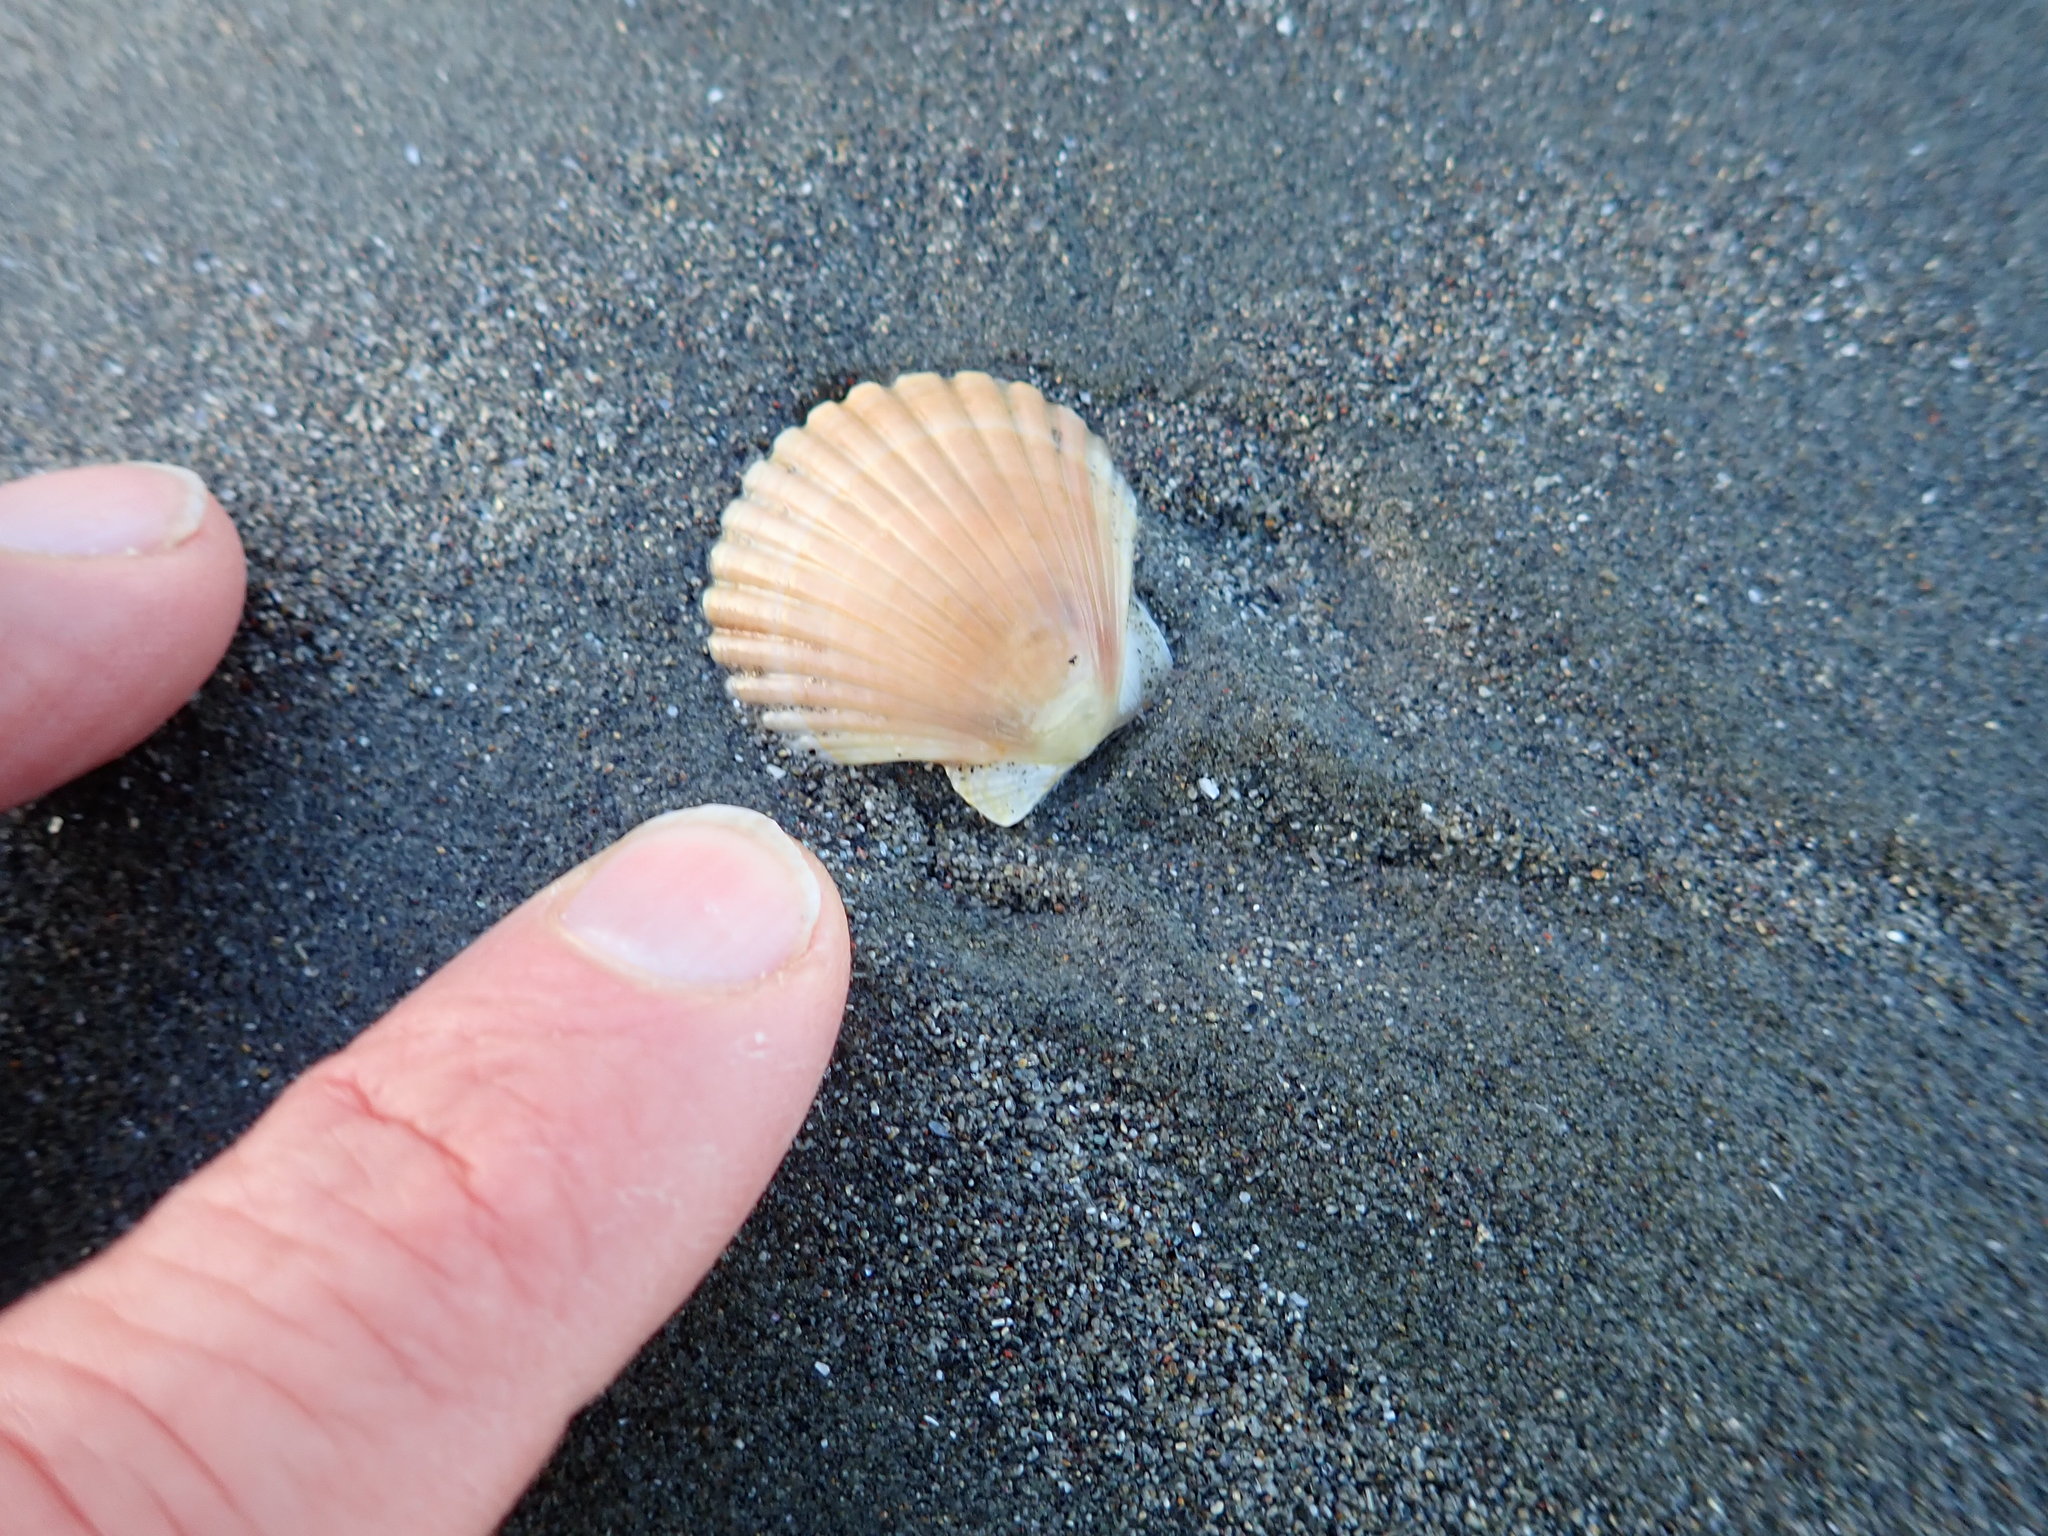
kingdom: Animalia
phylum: Mollusca
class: Bivalvia
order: Pectinida
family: Pectinidae
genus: Pecten
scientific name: Pecten novaezelandiae
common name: New zealand scallop
